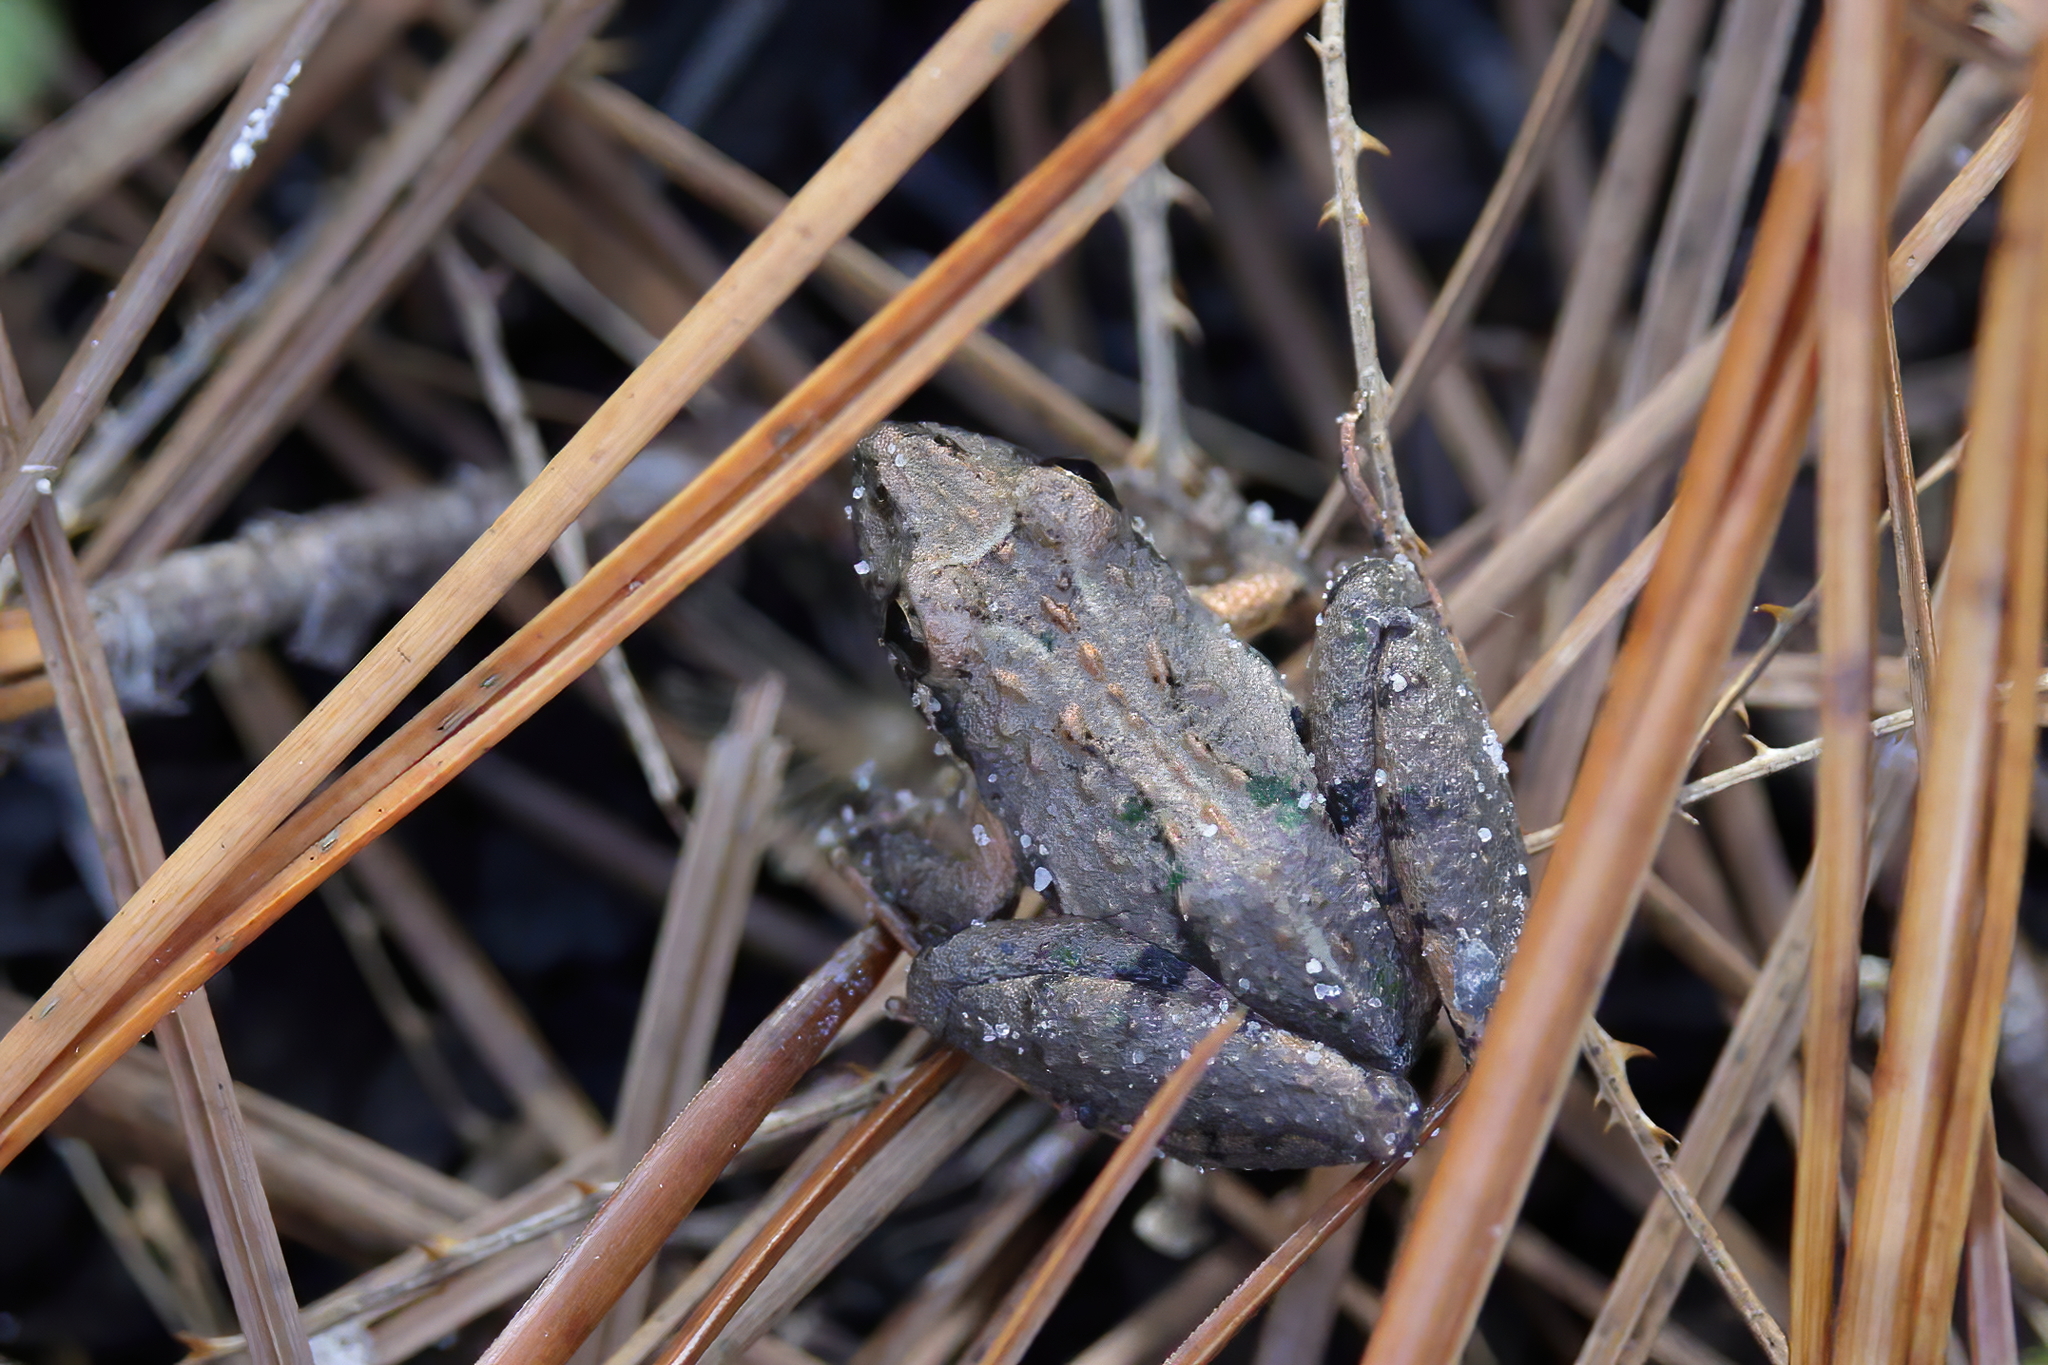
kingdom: Animalia
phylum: Chordata
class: Amphibia
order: Anura
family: Hylidae
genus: Acris
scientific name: Acris gryllus
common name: Southern cricket frog
